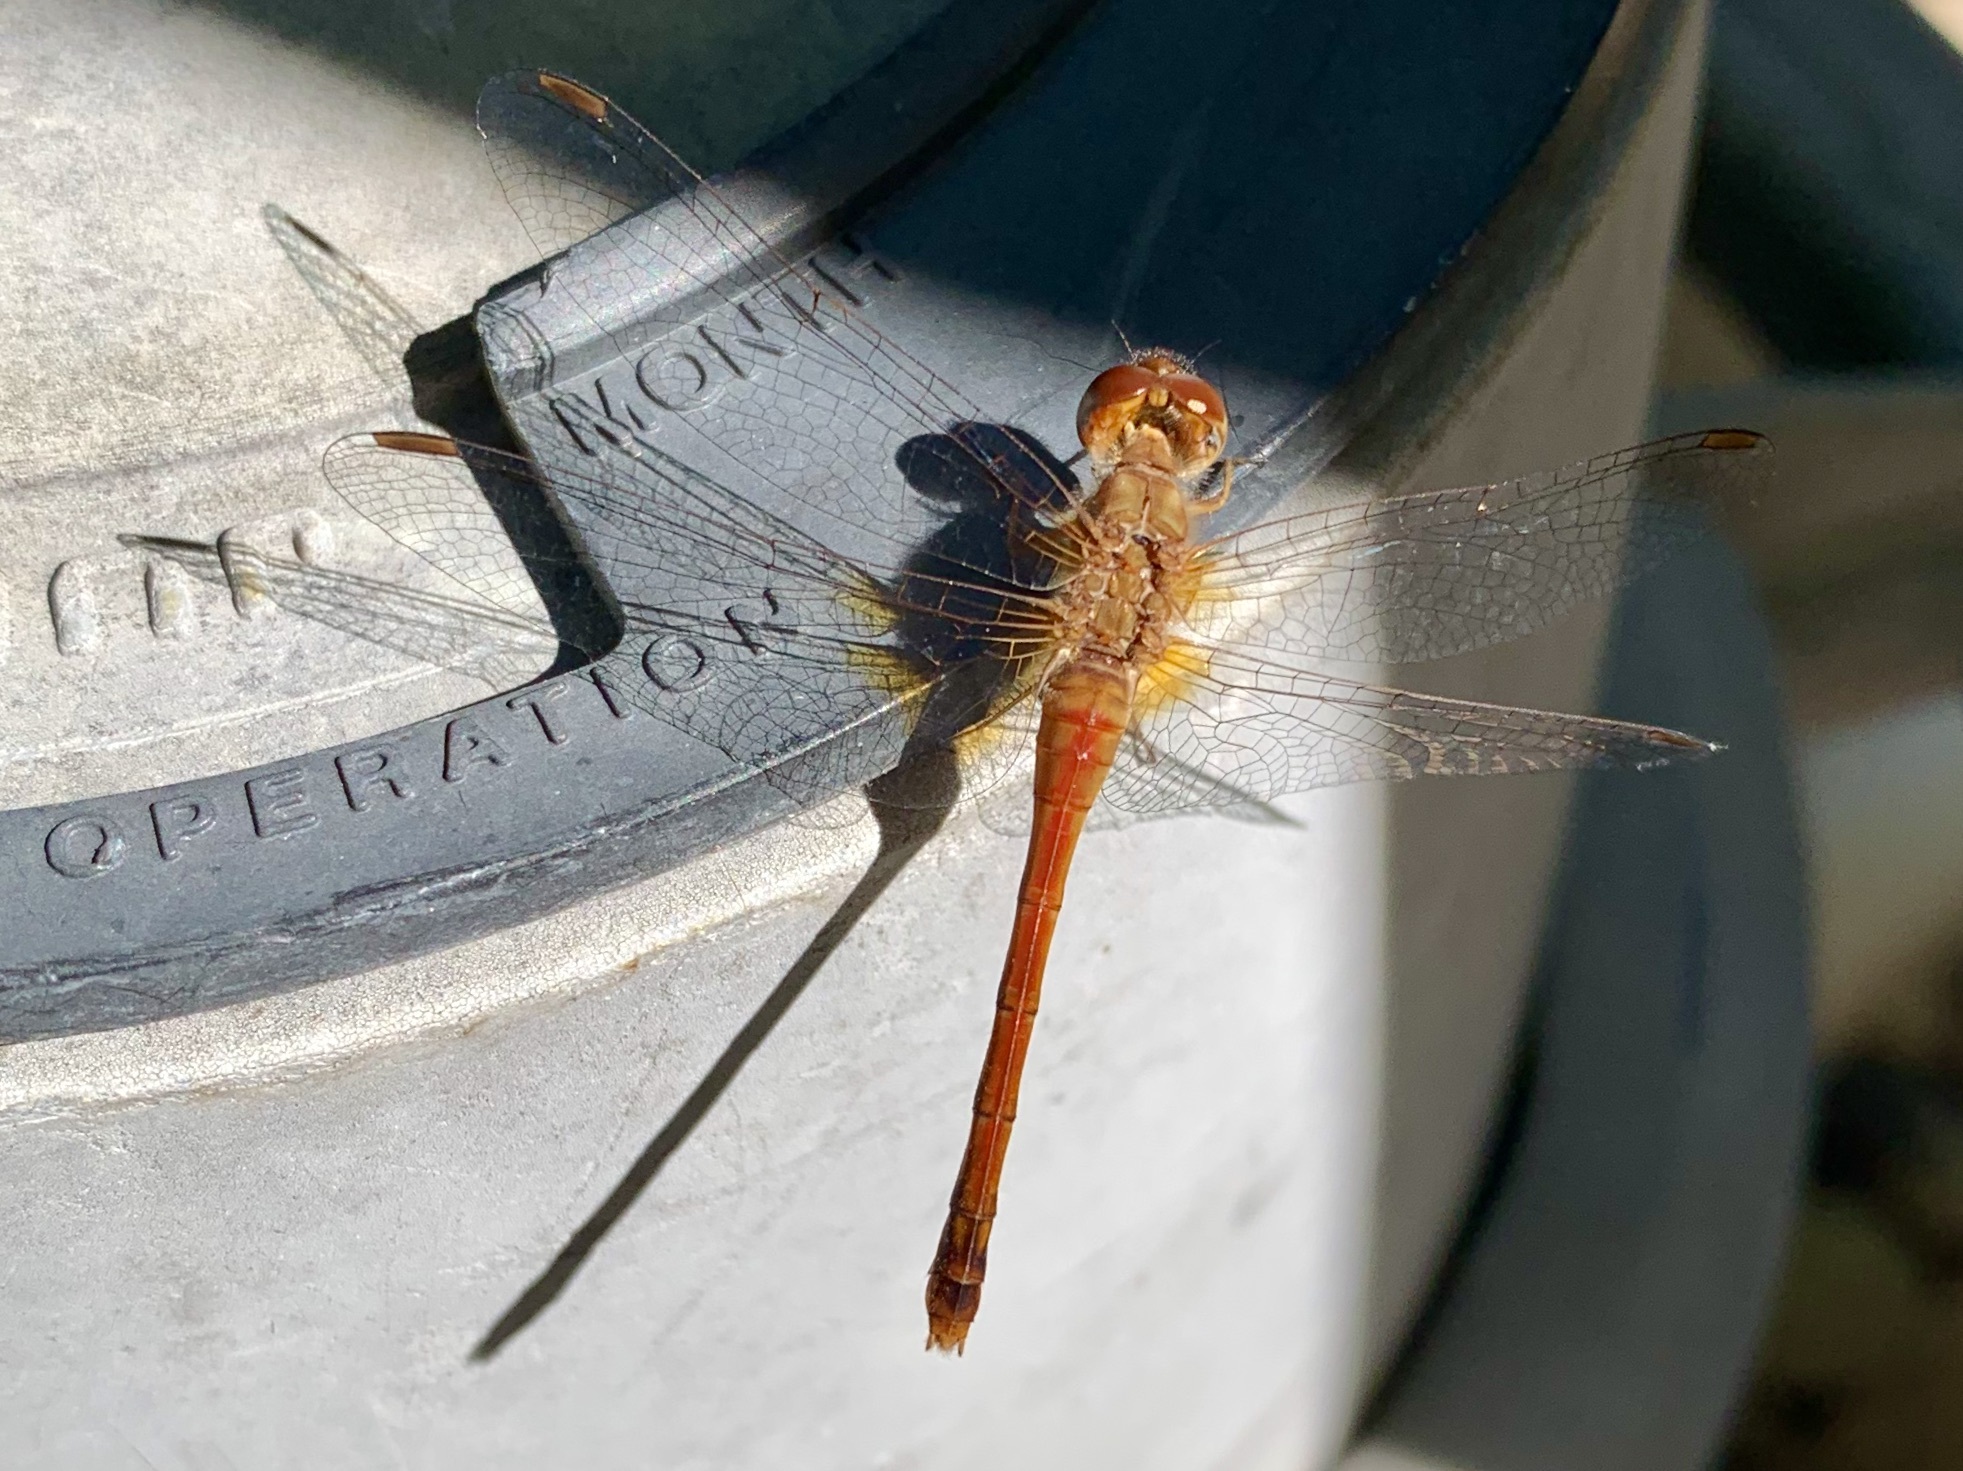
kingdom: Animalia
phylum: Arthropoda
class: Insecta
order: Odonata
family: Libellulidae
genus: Sympetrum
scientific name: Sympetrum vicinum
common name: Autumn meadowhawk
